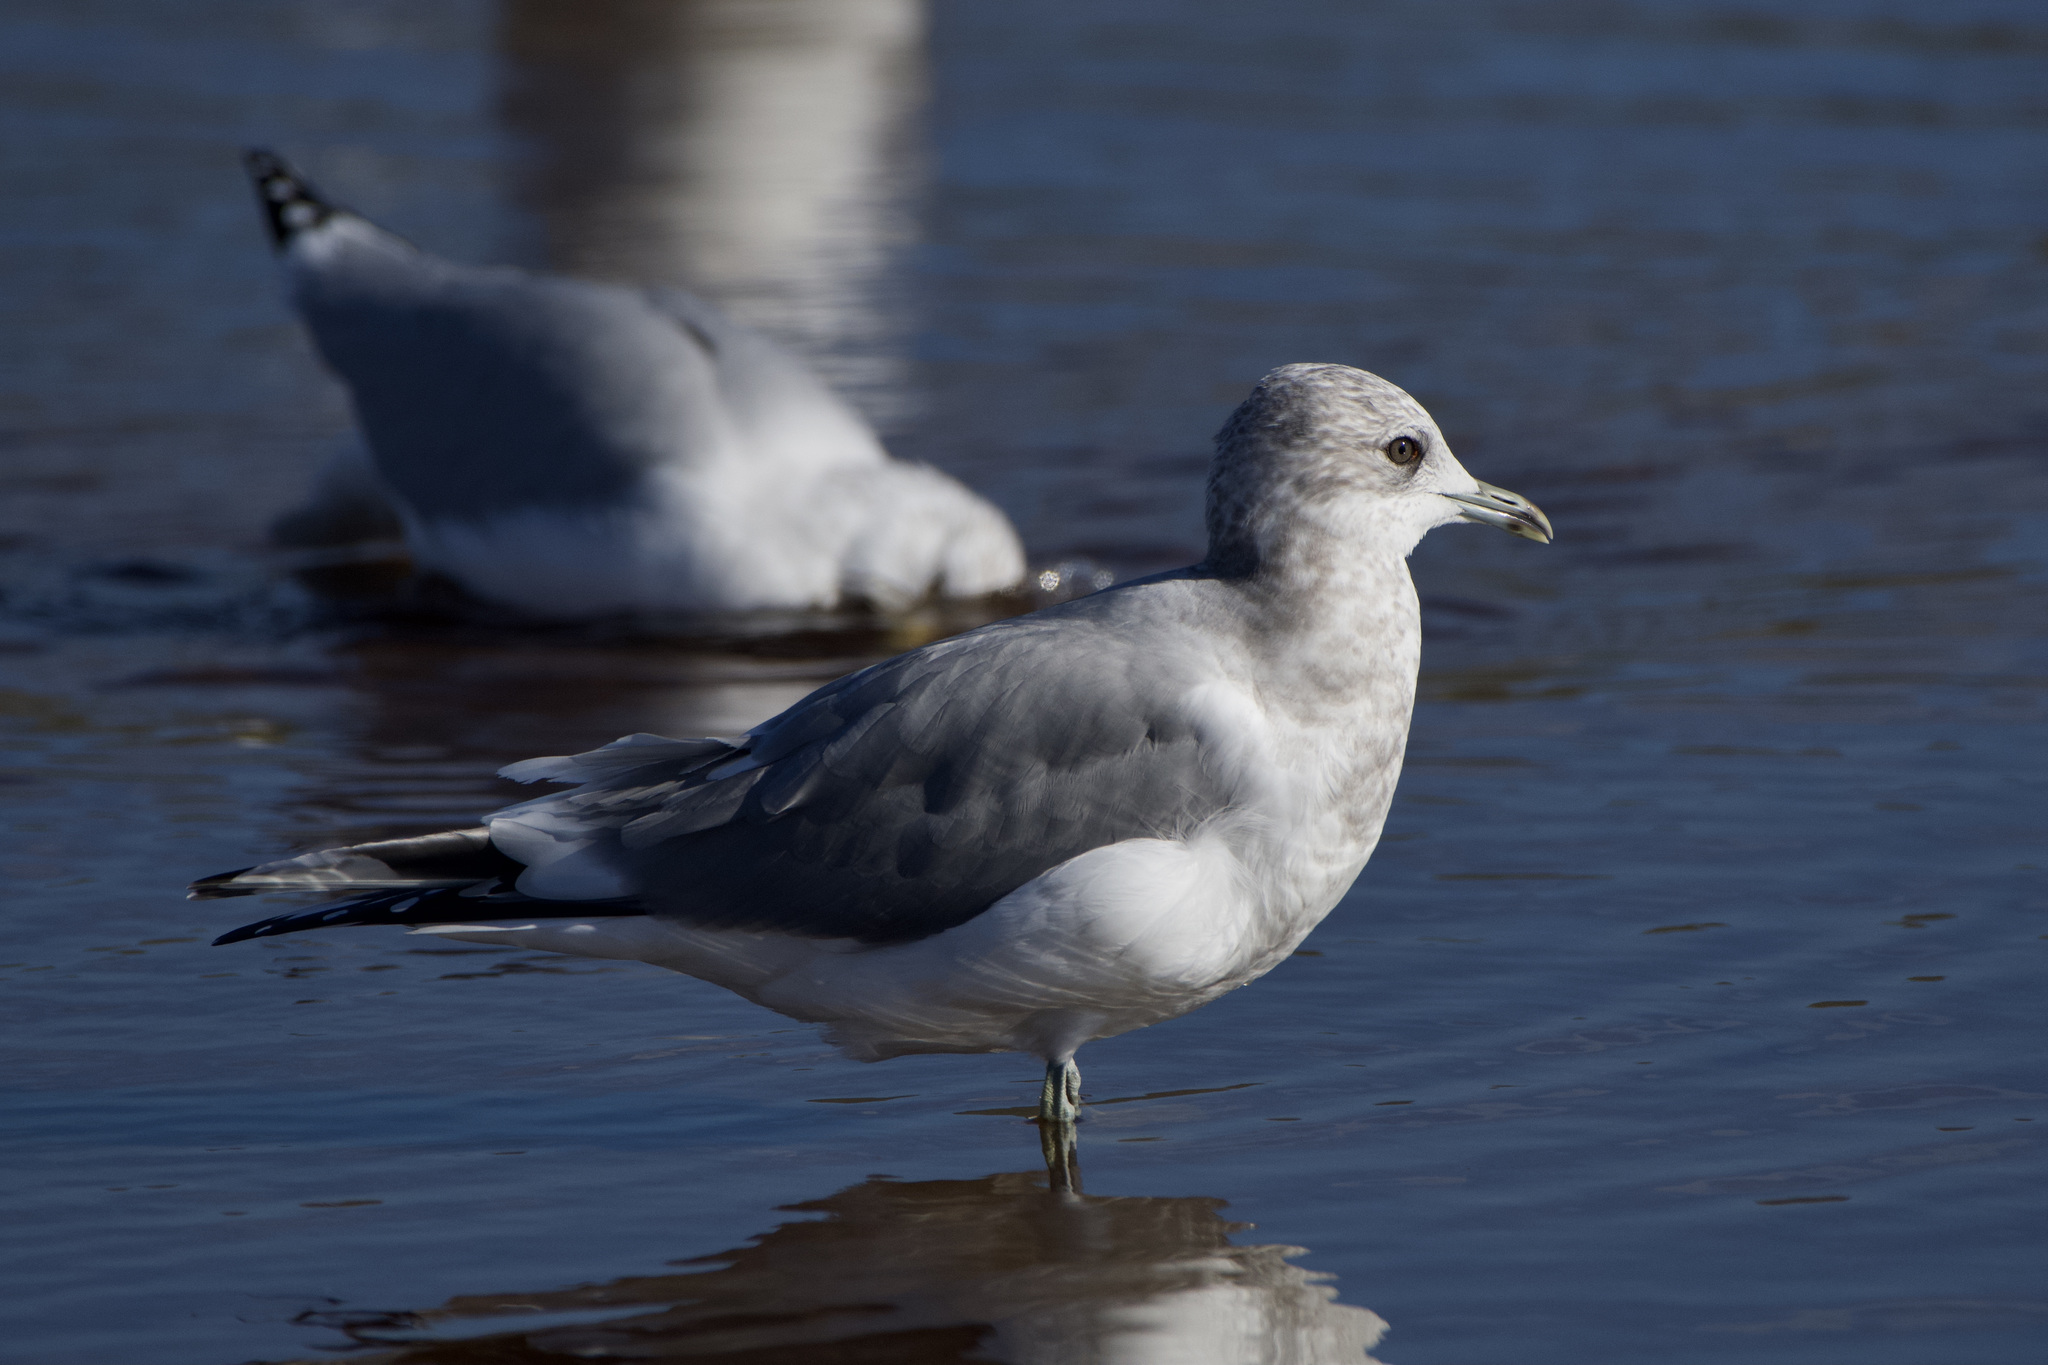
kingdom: Animalia
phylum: Chordata
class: Aves
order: Charadriiformes
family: Laridae
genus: Larus
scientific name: Larus brachyrhynchus
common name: Short-billed gull
